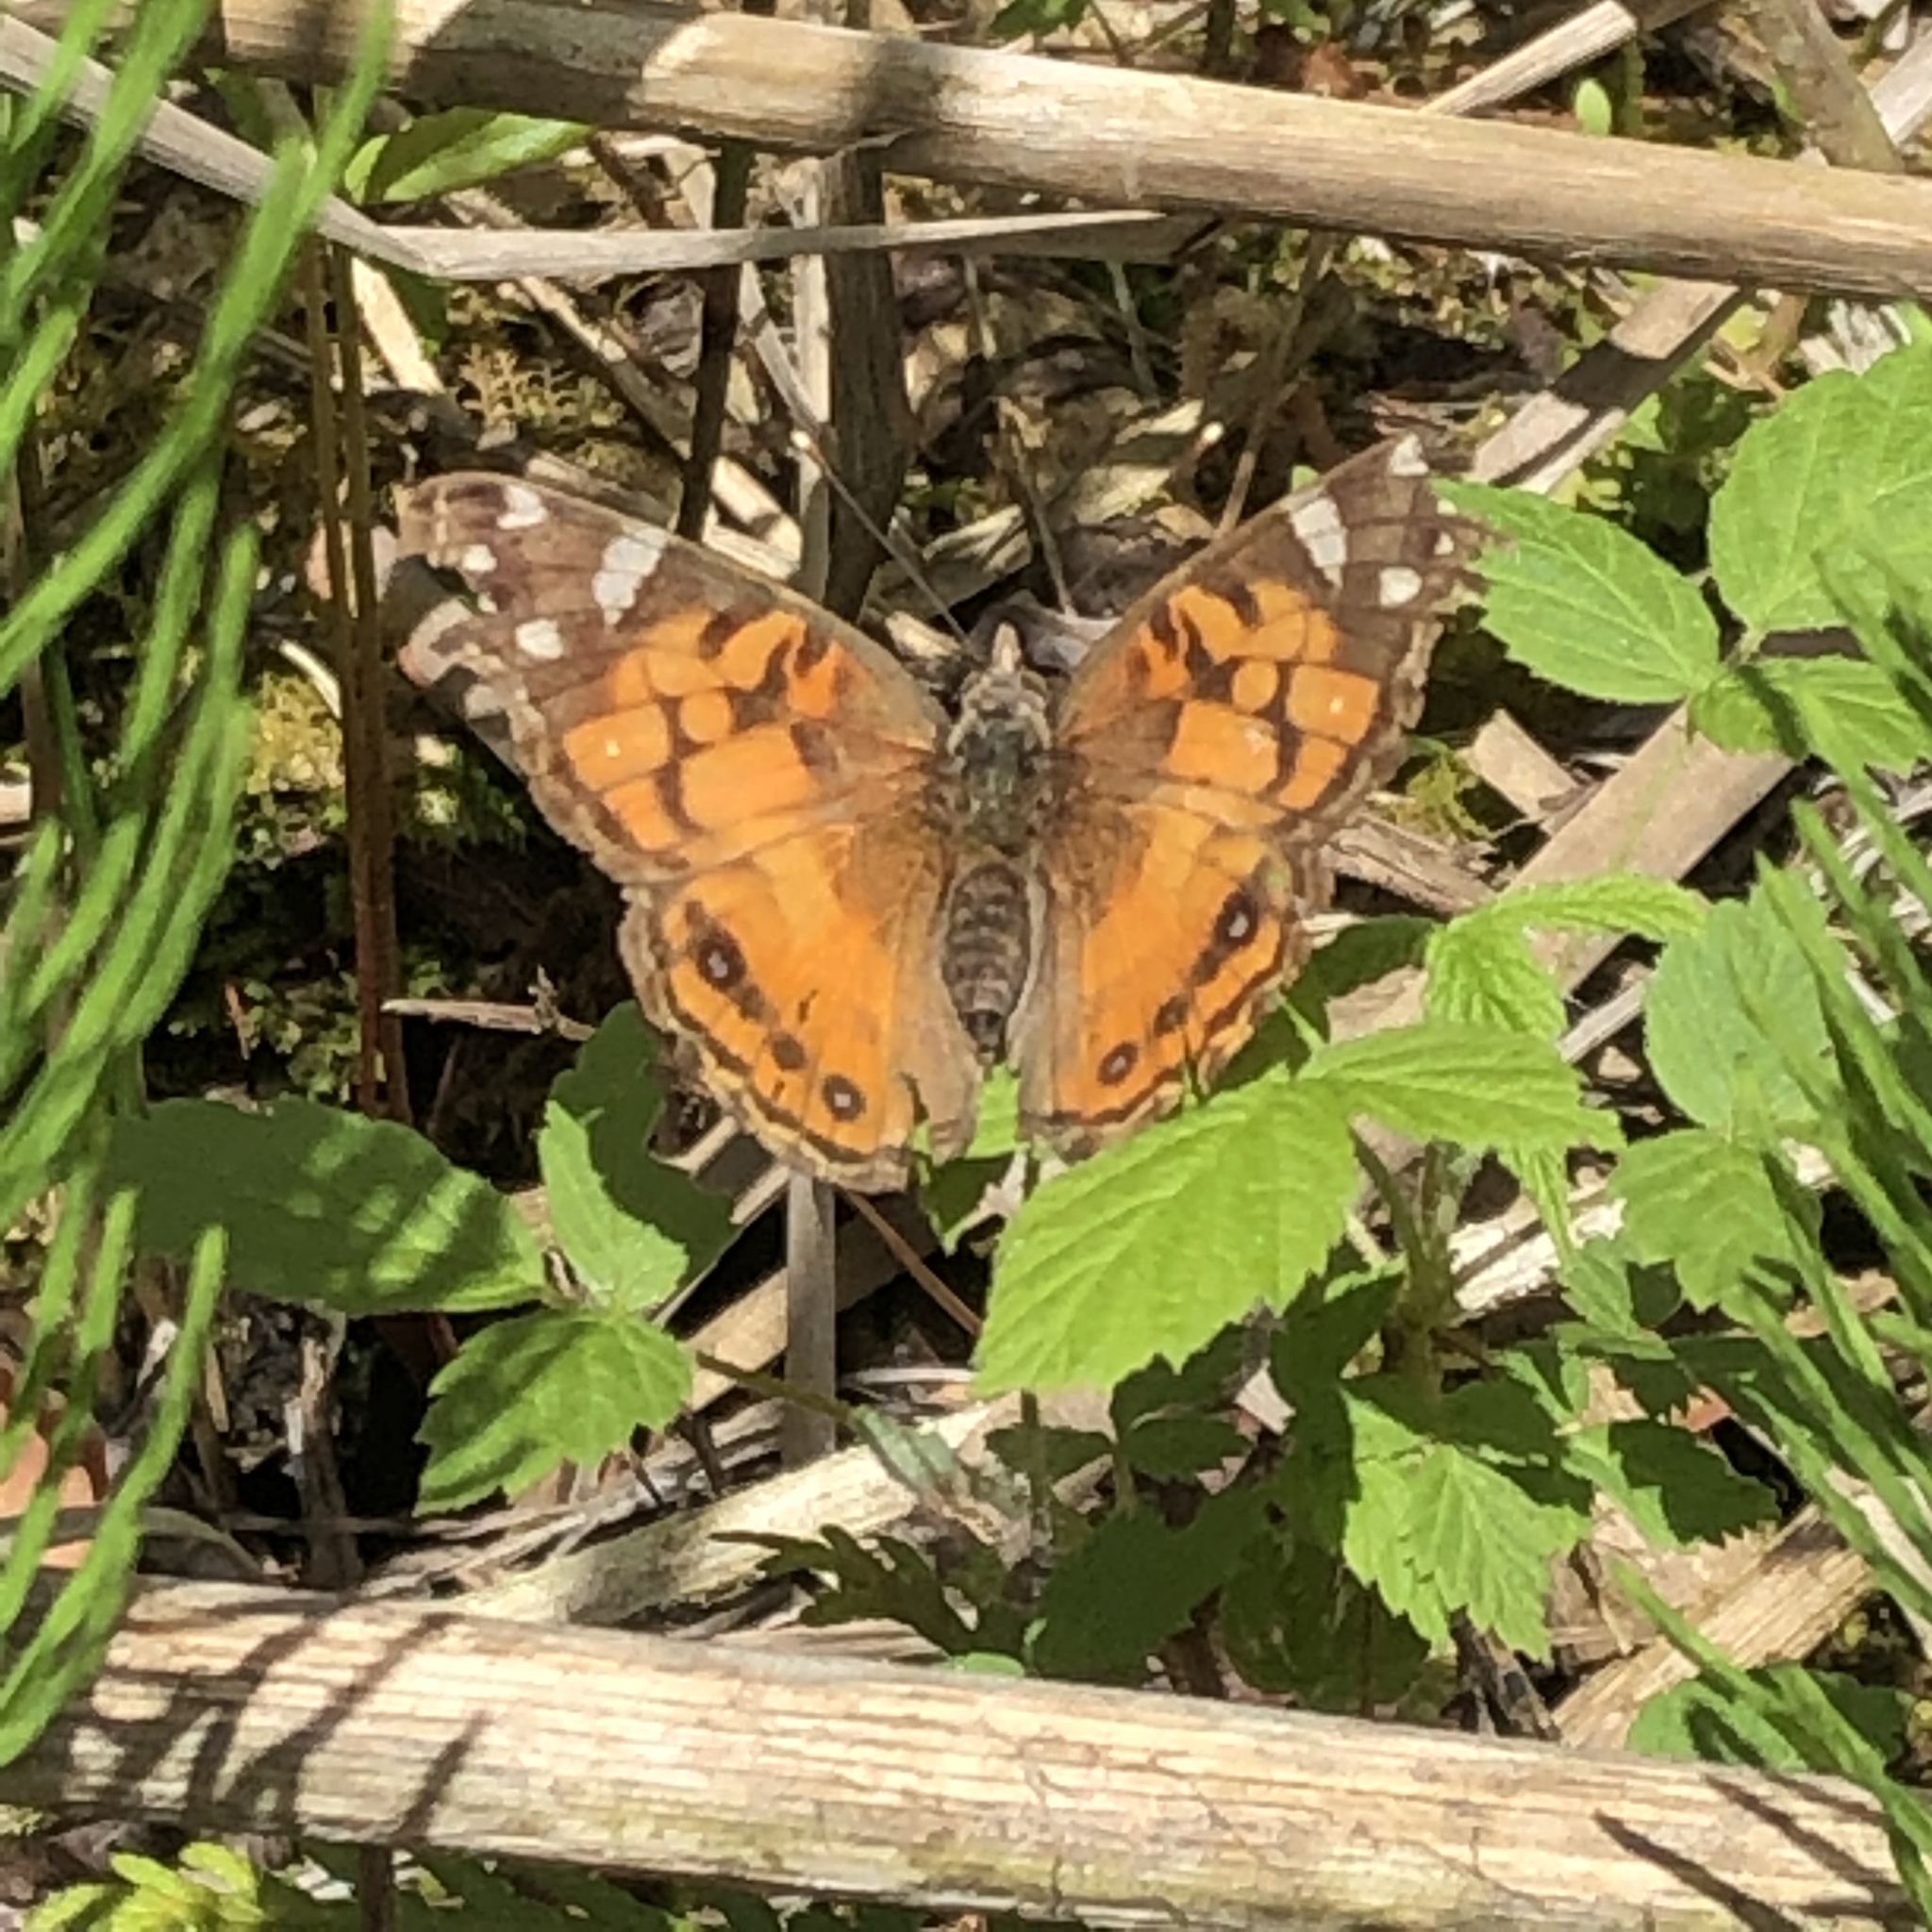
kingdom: Animalia
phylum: Arthropoda
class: Insecta
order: Lepidoptera
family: Nymphalidae
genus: Vanessa
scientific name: Vanessa virginiensis
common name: American lady
